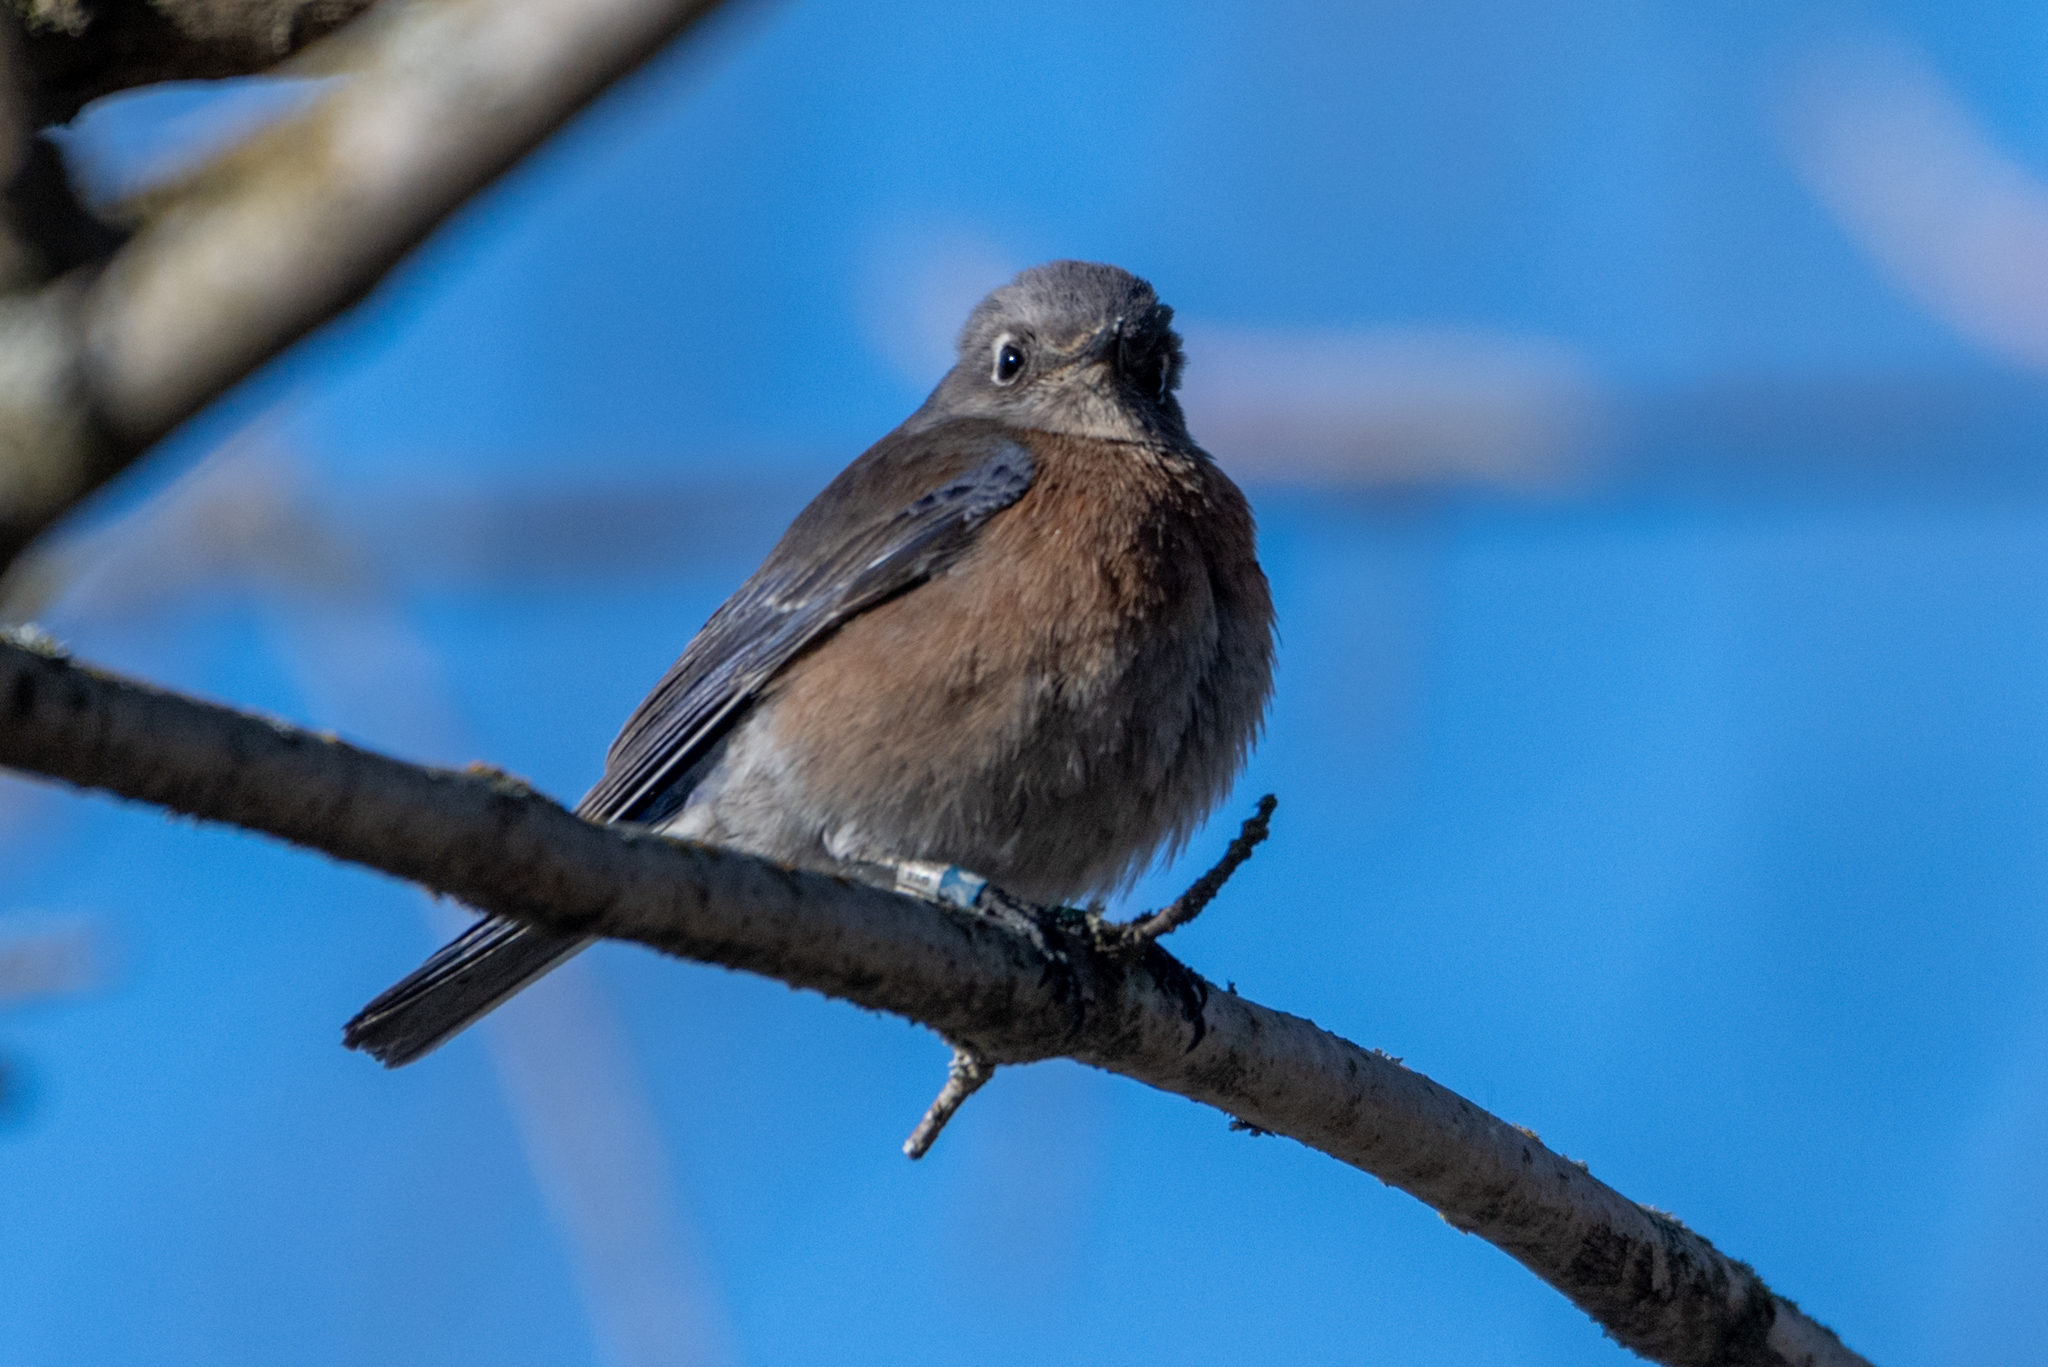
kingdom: Animalia
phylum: Chordata
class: Aves
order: Passeriformes
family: Turdidae
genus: Sialia
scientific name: Sialia mexicana
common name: Western bluebird
